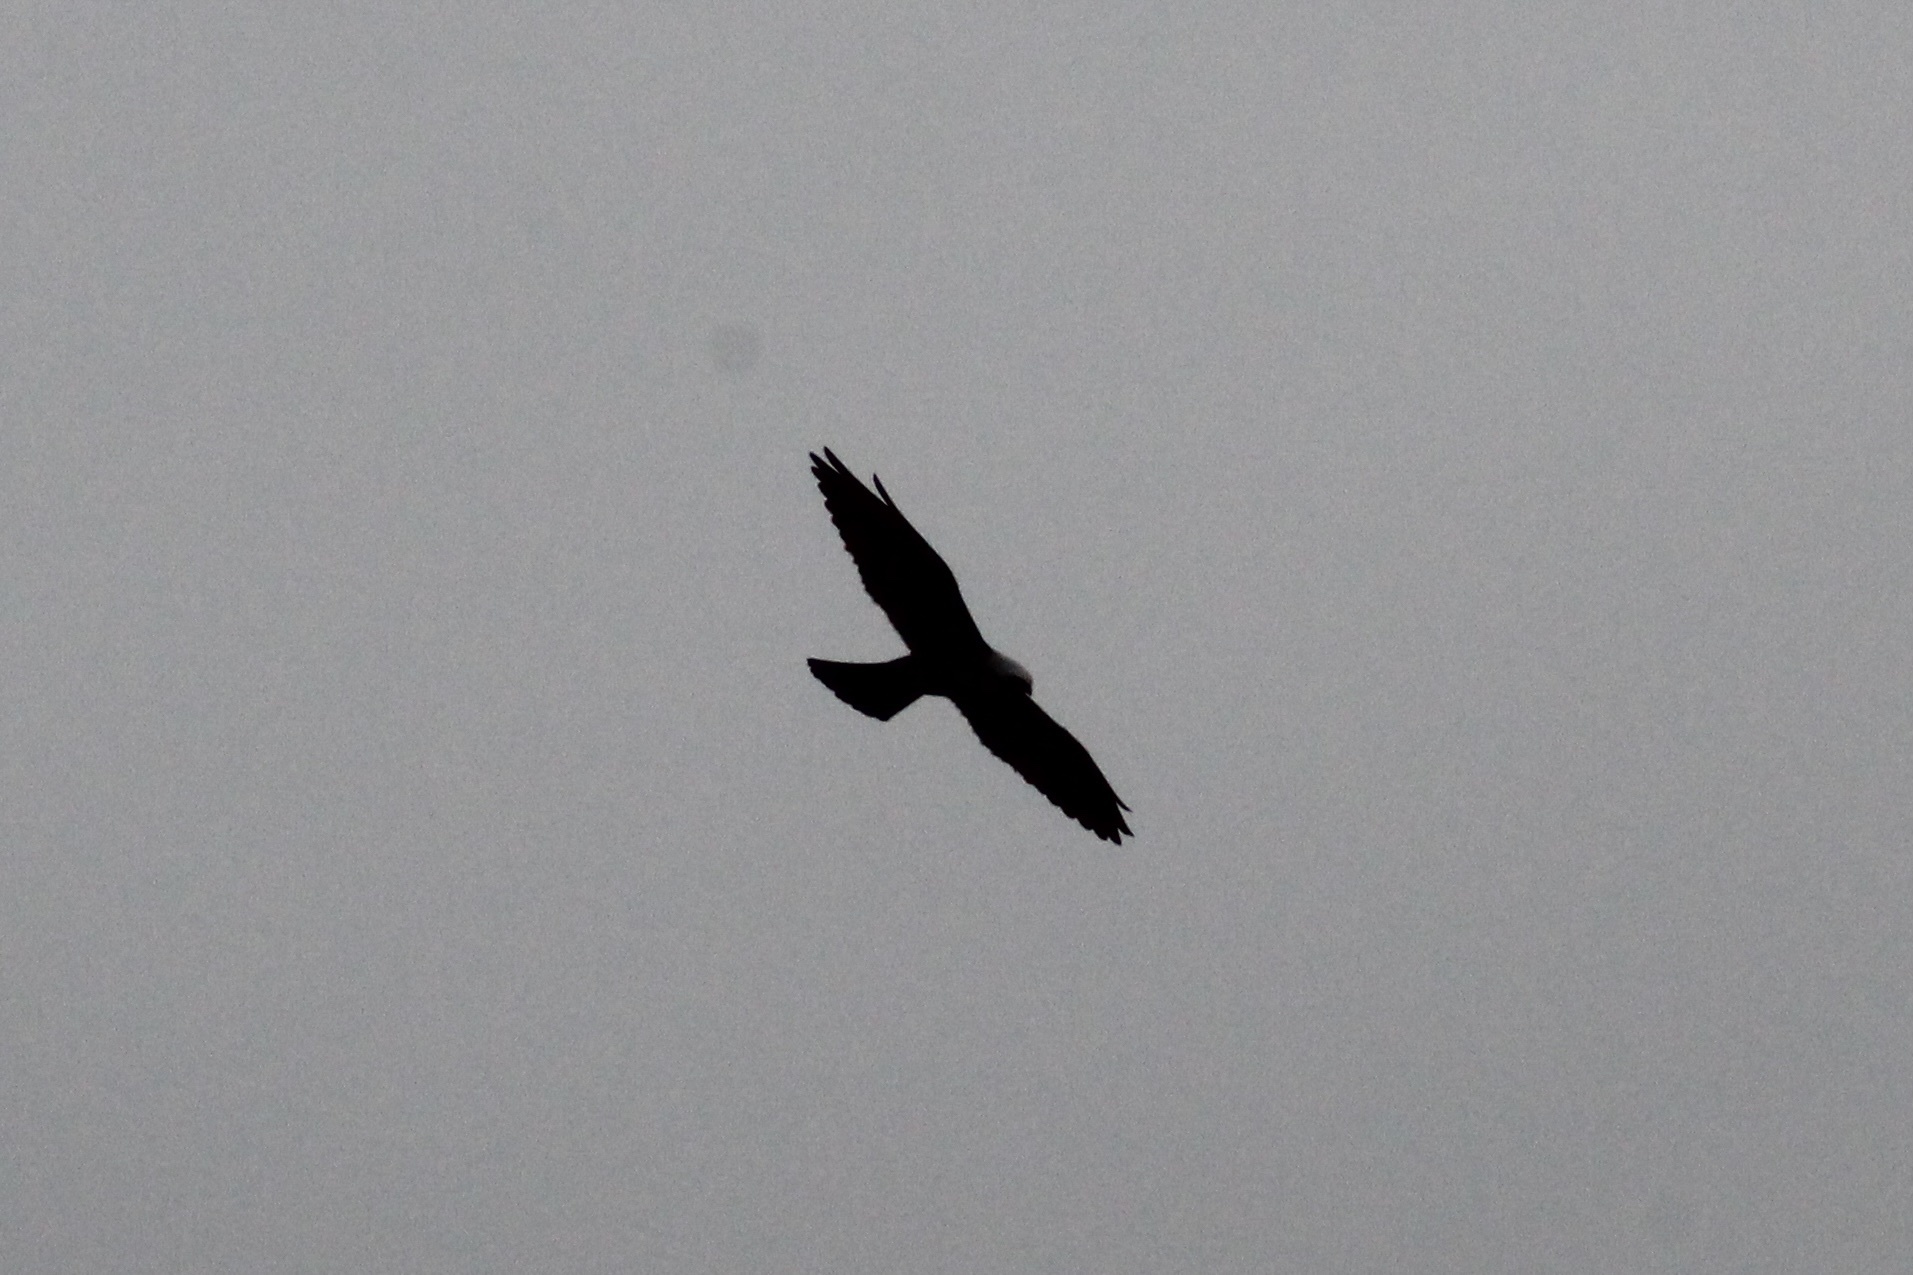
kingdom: Animalia
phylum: Chordata
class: Aves
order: Accipitriformes
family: Accipitridae
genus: Ictinia
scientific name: Ictinia mississippiensis
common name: Mississippi kite
